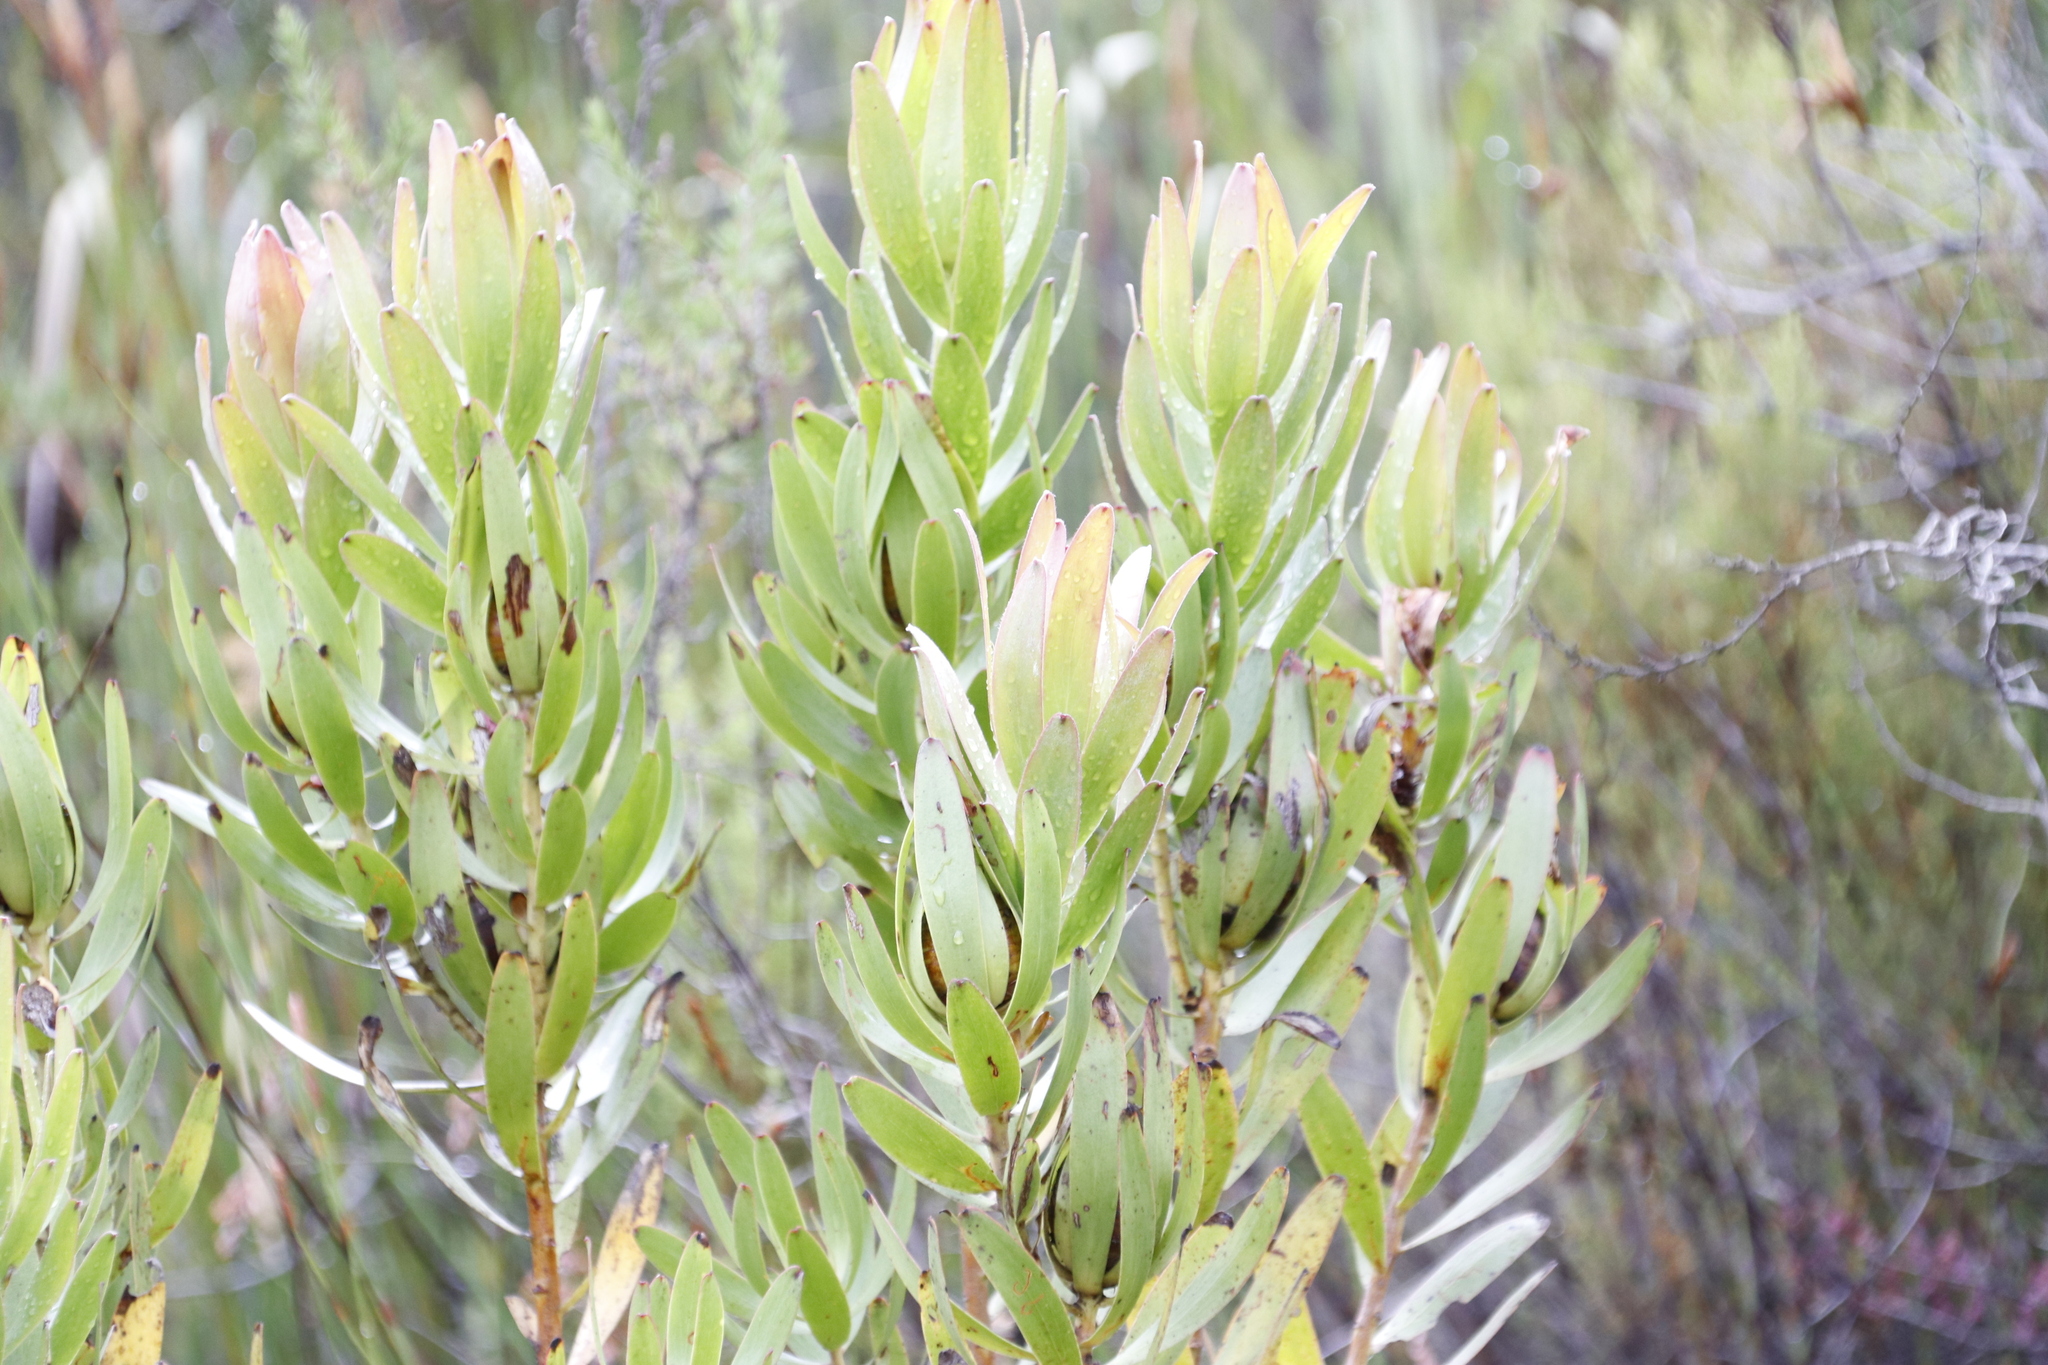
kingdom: Plantae
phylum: Tracheophyta
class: Magnoliopsida
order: Proteales
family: Proteaceae
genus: Leucadendron
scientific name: Leucadendron microcephalum
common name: Oilbract conebush
